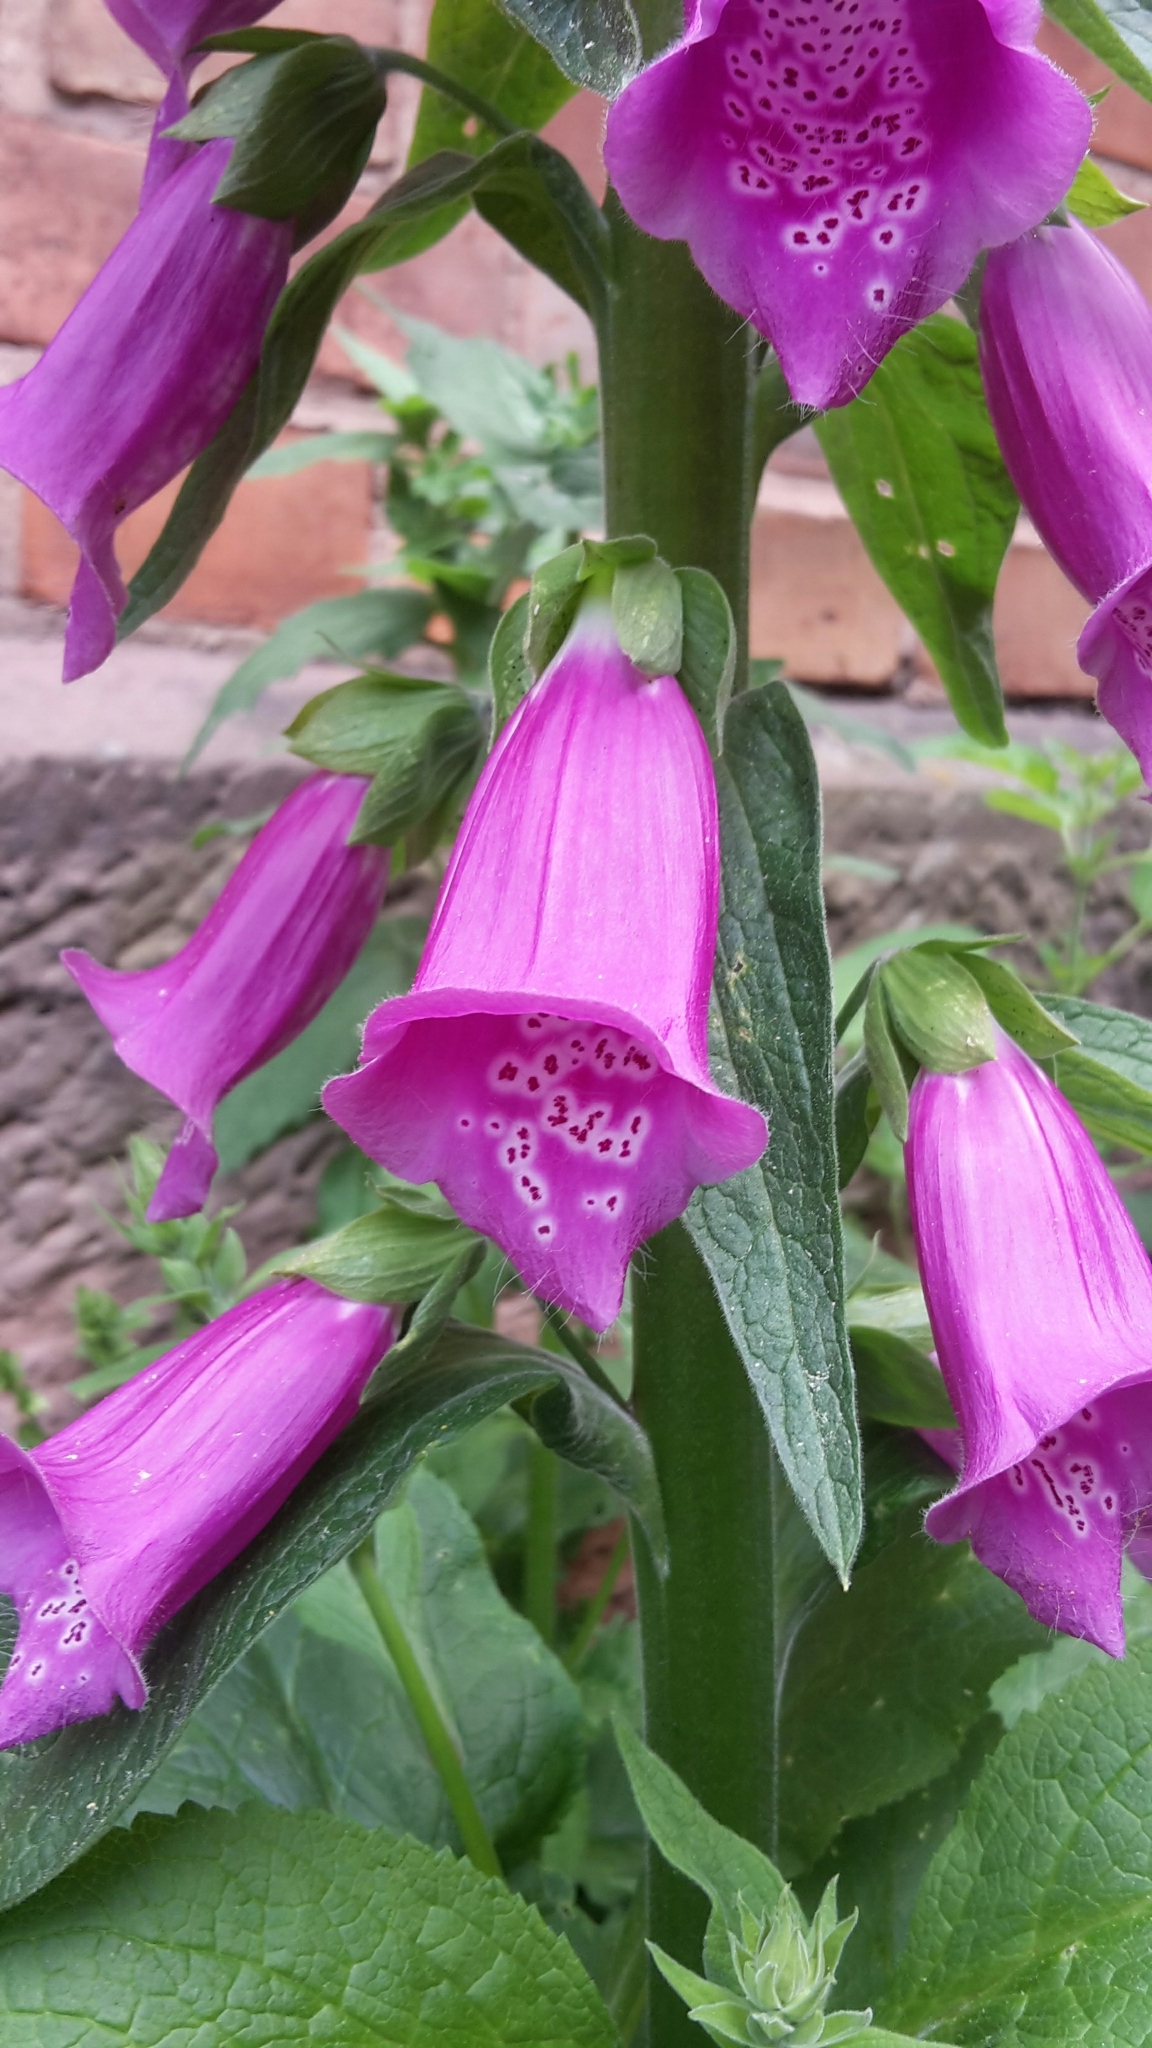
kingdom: Plantae
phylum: Tracheophyta
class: Magnoliopsida
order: Lamiales
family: Plantaginaceae
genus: Digitalis
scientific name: Digitalis purpurea
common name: Foxglove
